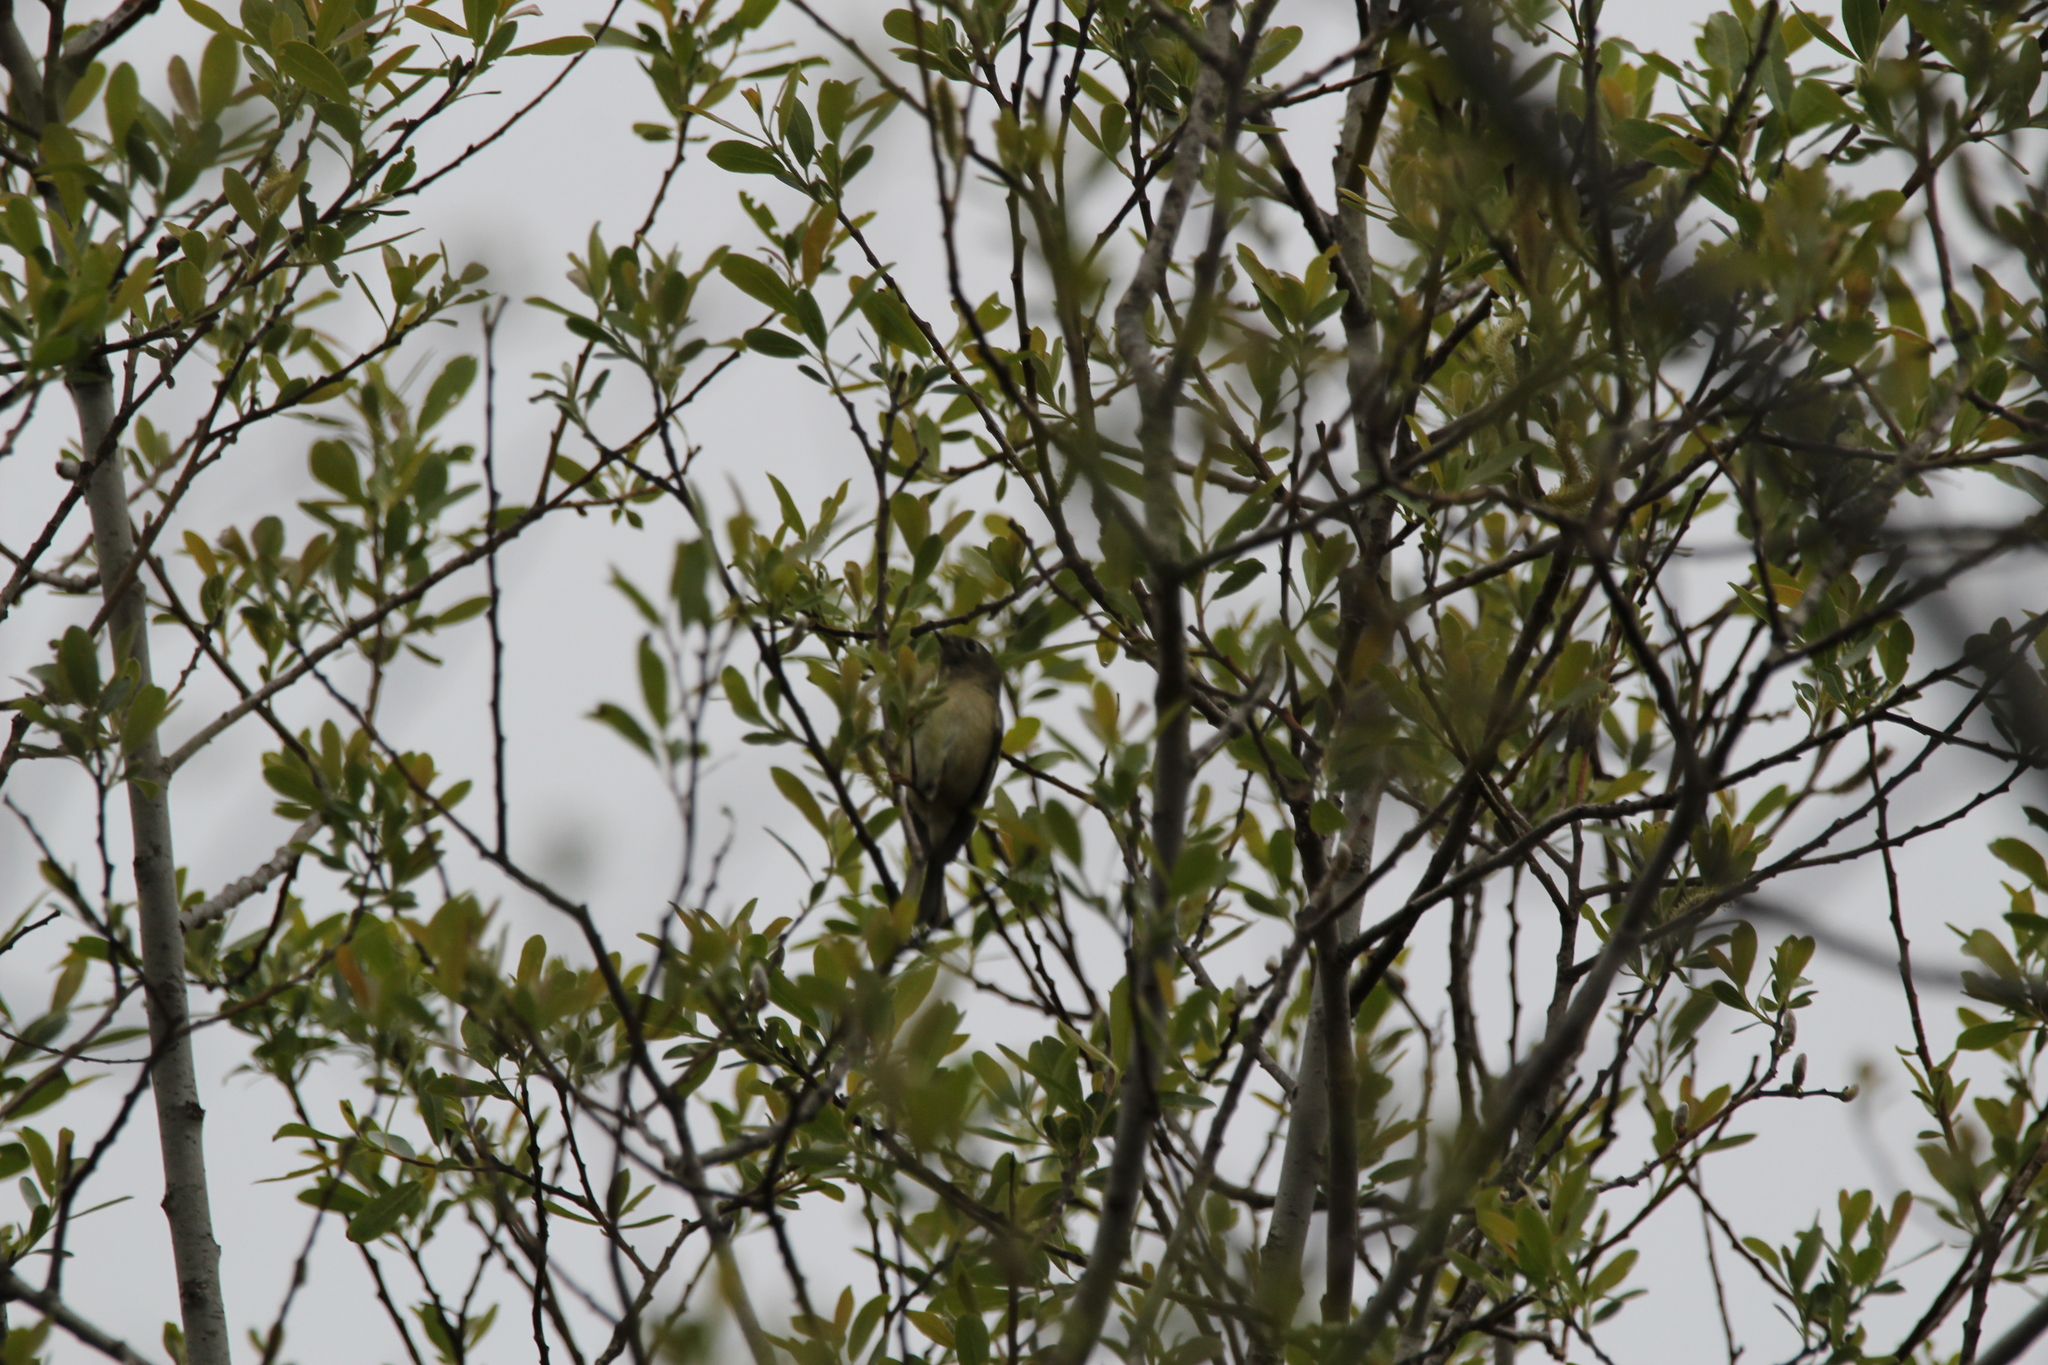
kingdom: Animalia
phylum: Chordata
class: Aves
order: Passeriformes
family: Regulidae
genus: Regulus
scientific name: Regulus calendula
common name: Ruby-crowned kinglet
